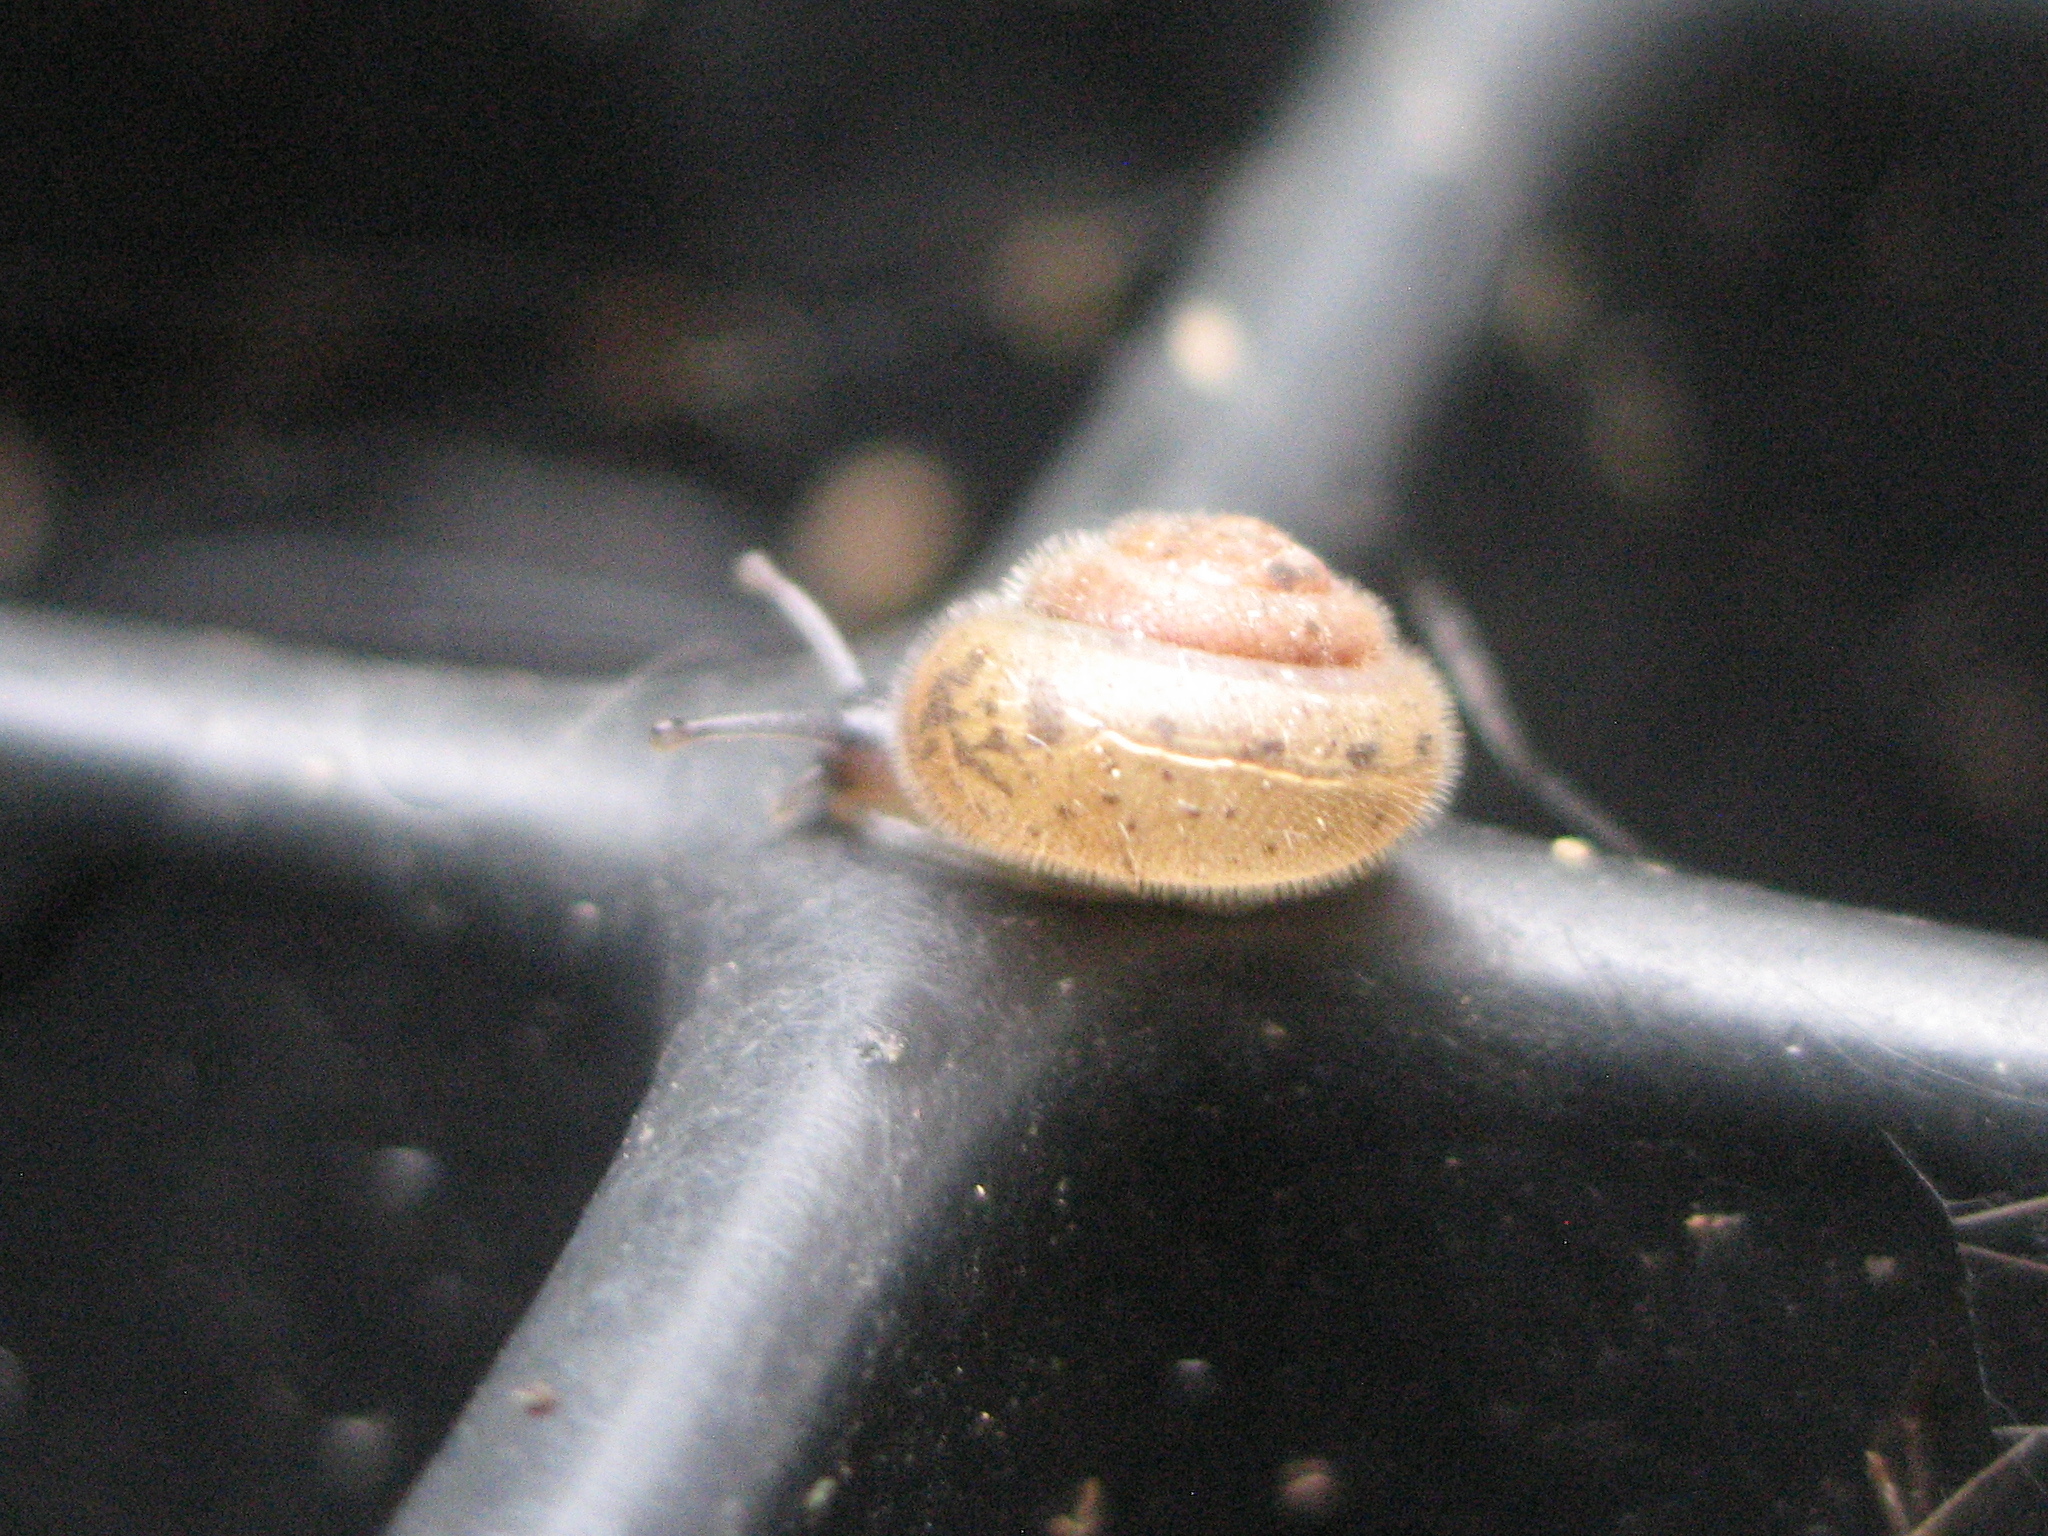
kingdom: Animalia
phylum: Mollusca
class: Gastropoda
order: Stylommatophora
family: Hygromiidae
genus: Trochulus
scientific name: Trochulus hispidus
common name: Hairy snail
